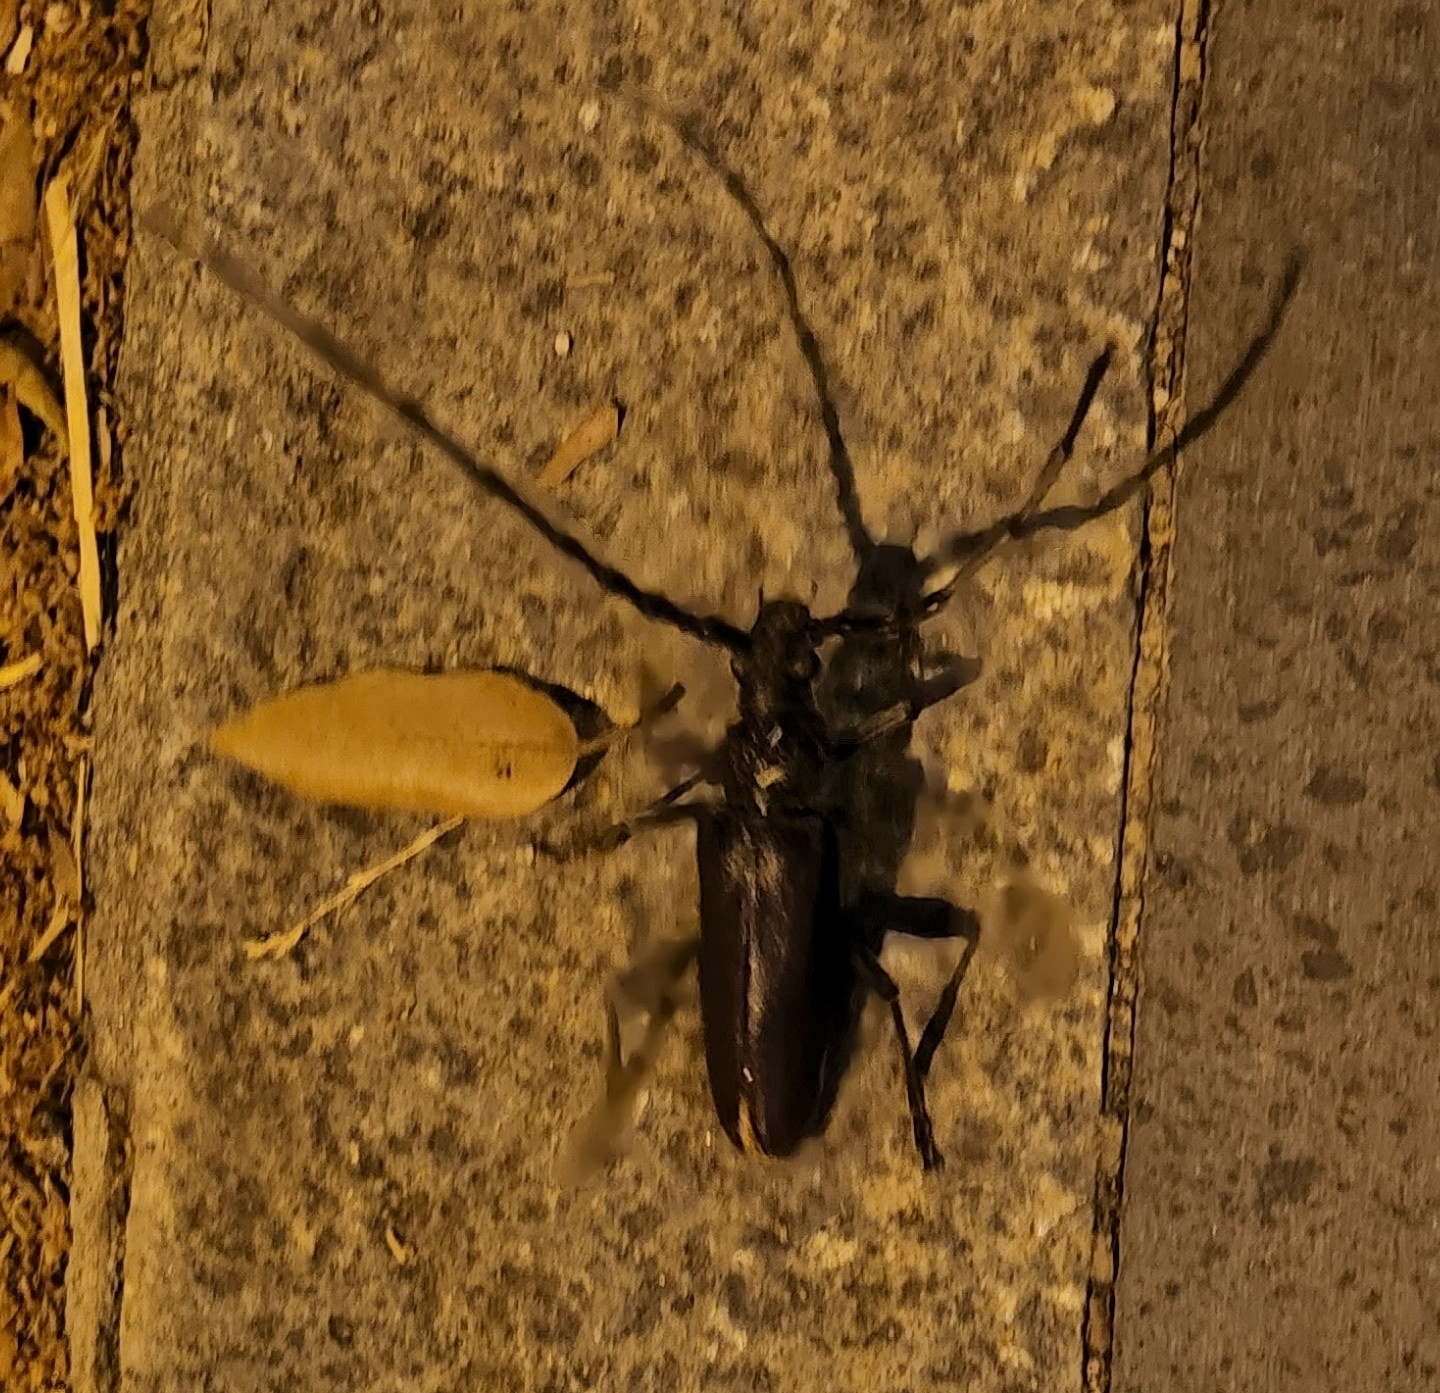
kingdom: Animalia
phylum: Arthropoda
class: Insecta
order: Coleoptera
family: Cerambycidae
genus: Cerambyx
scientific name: Cerambyx welensii
